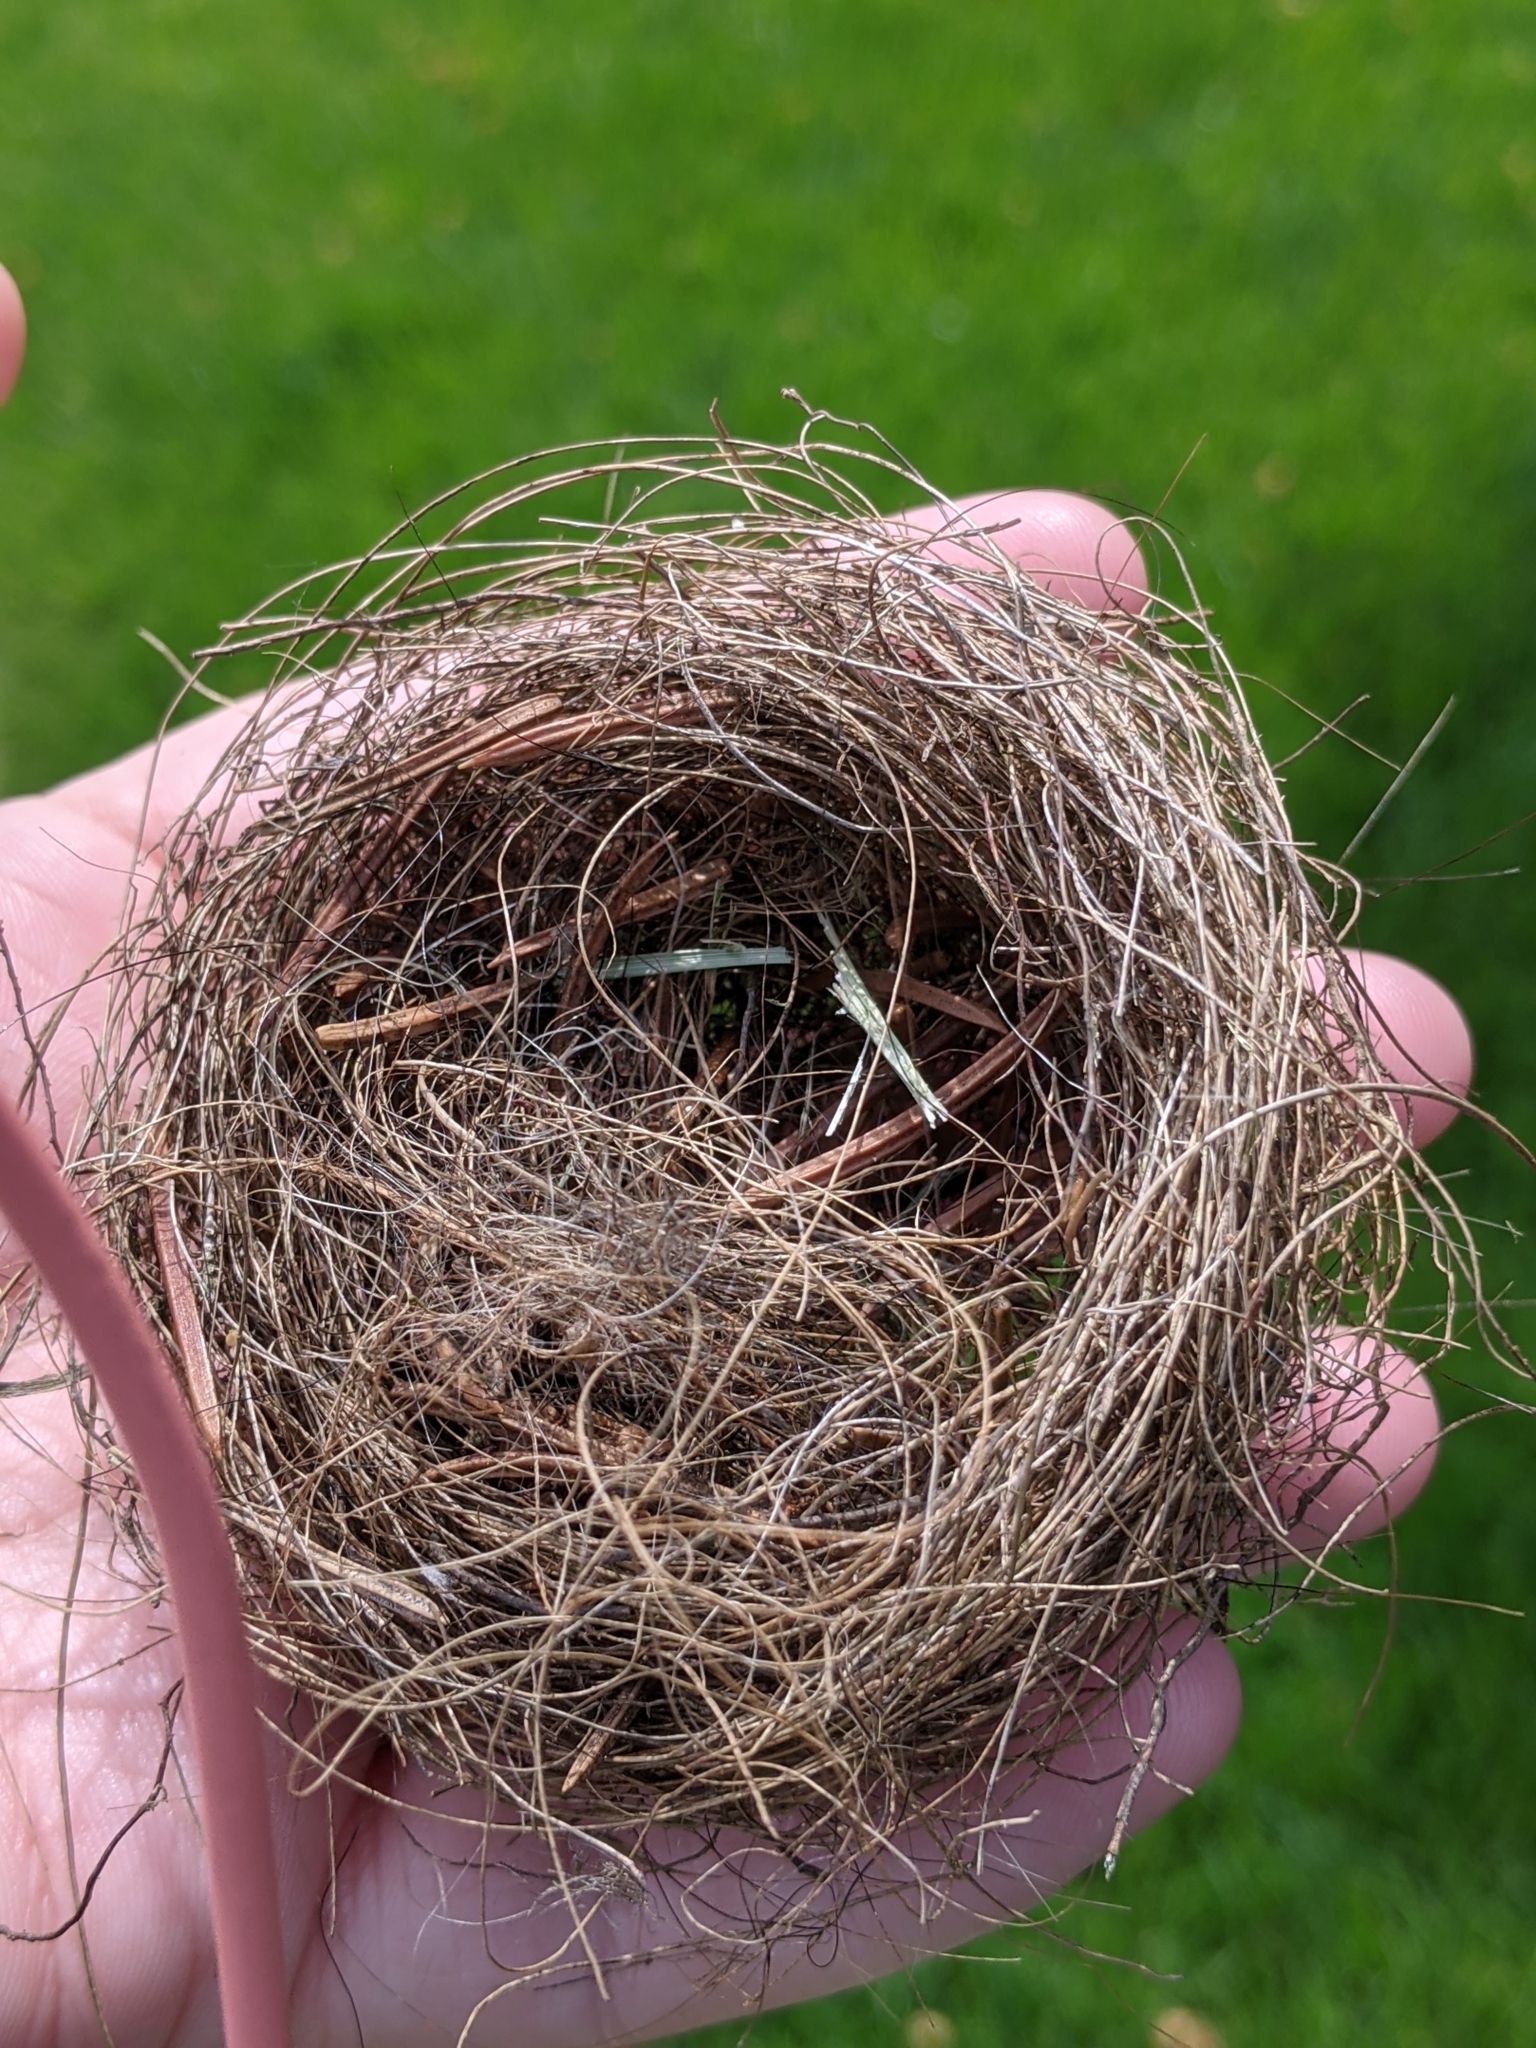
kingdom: Animalia
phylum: Chordata
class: Aves
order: Passeriformes
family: Passerellidae
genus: Spizella
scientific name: Spizella passerina
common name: Chipping sparrow
